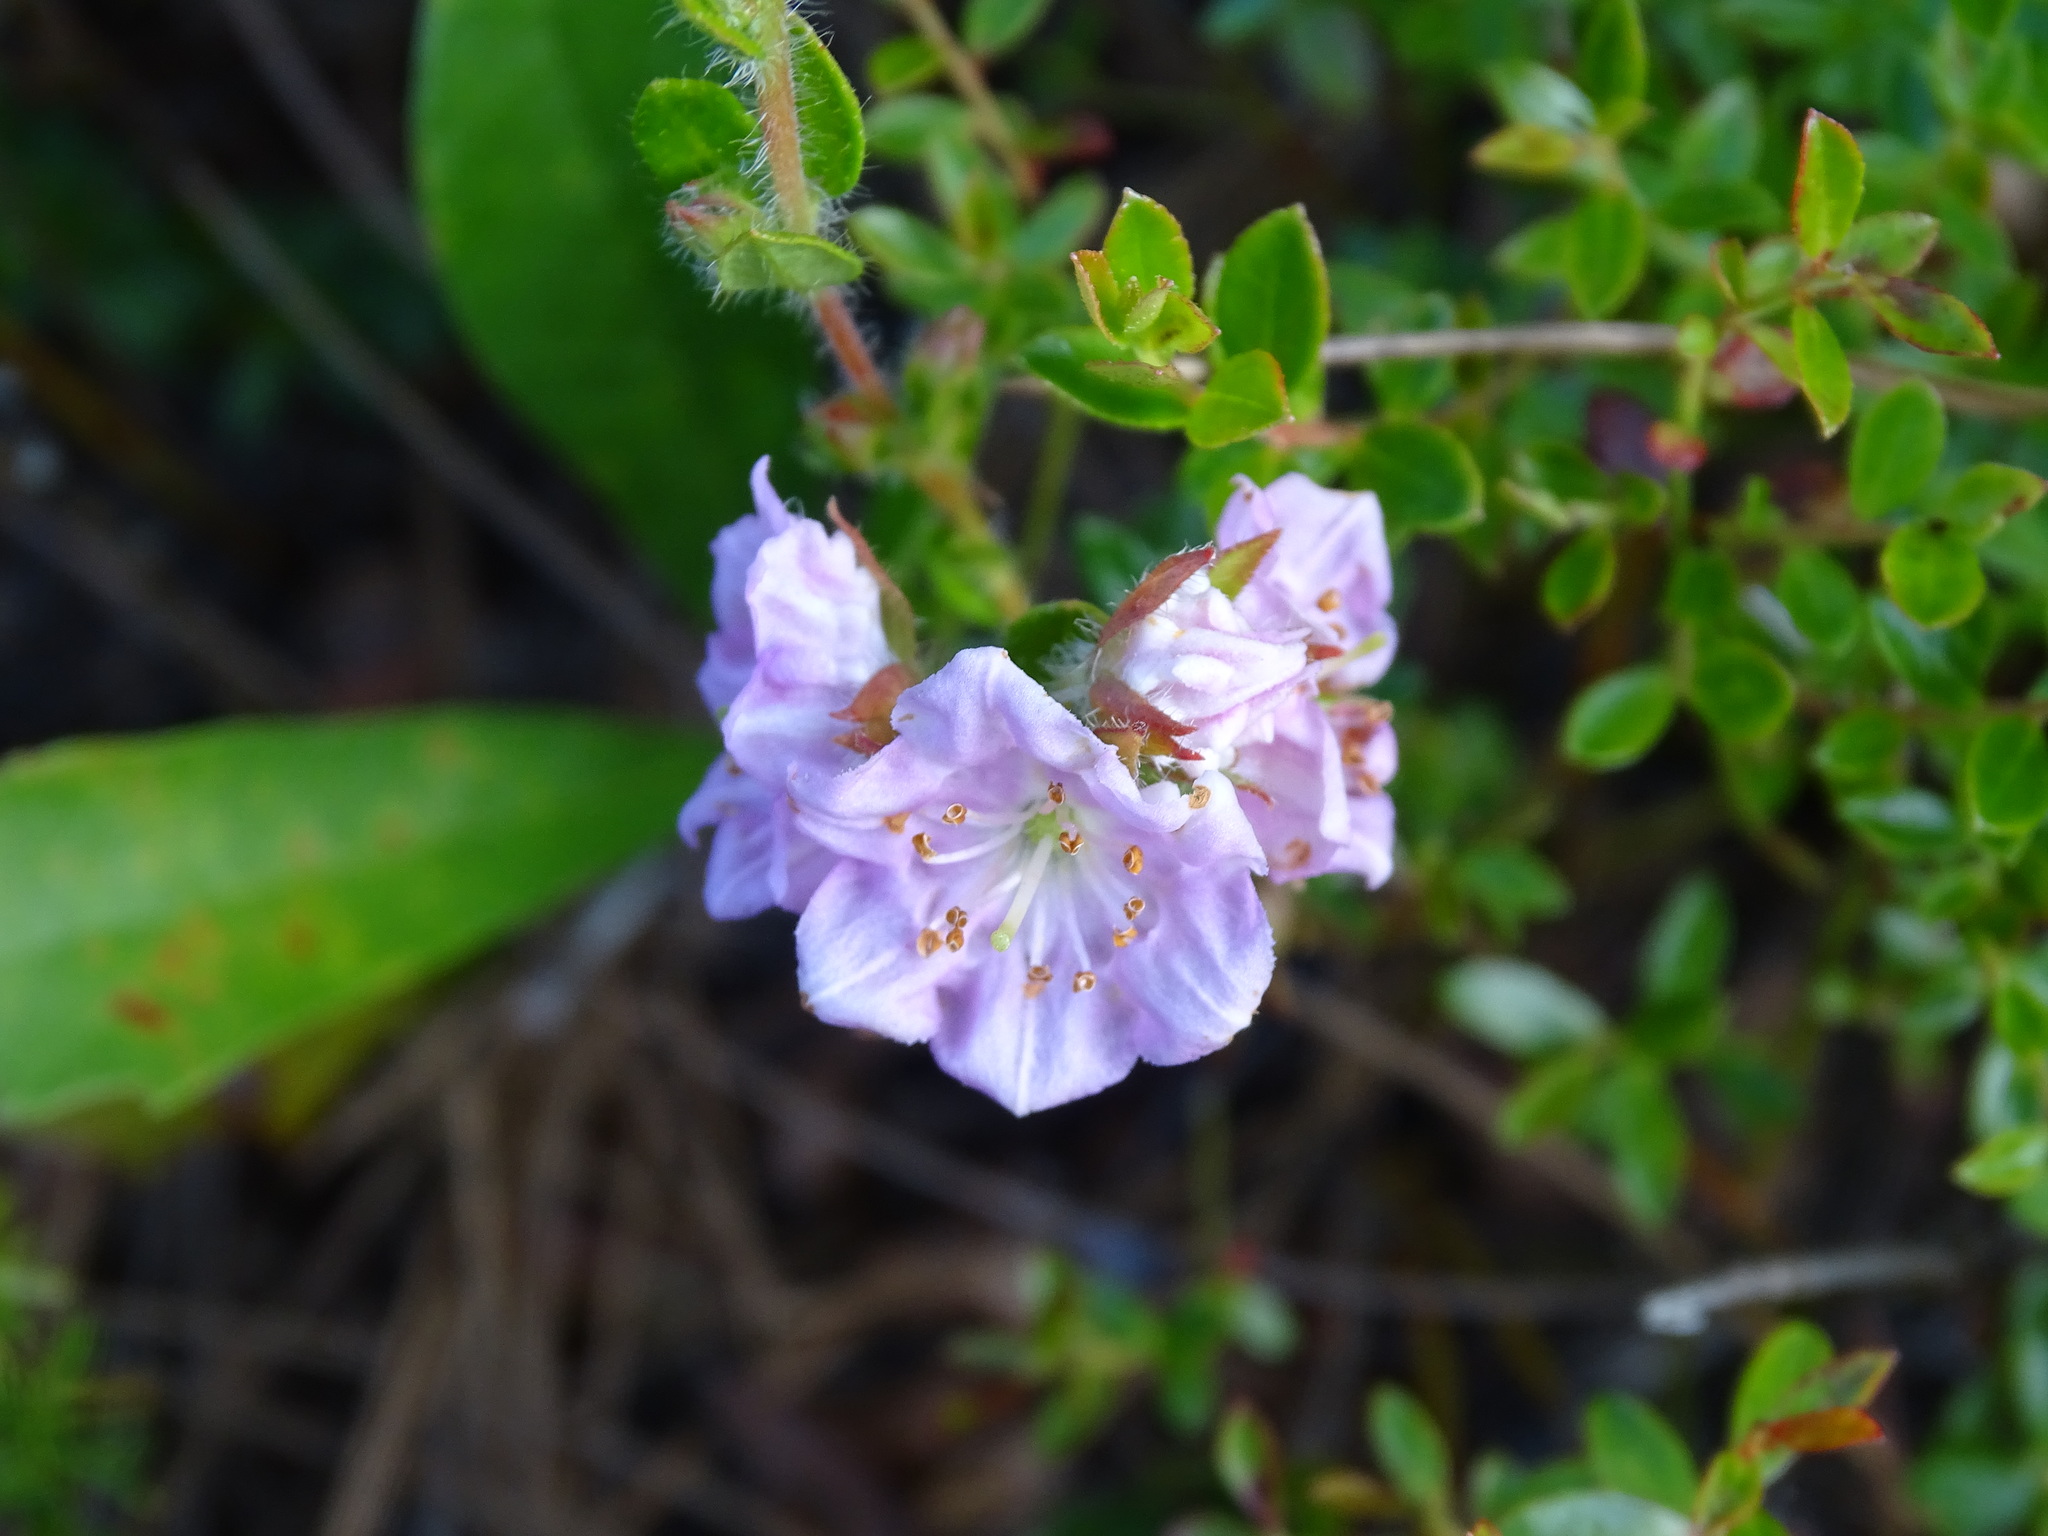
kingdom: Plantae
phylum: Tracheophyta
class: Magnoliopsida
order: Ericales
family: Ericaceae
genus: Kalmia
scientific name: Kalmia hirsuta
